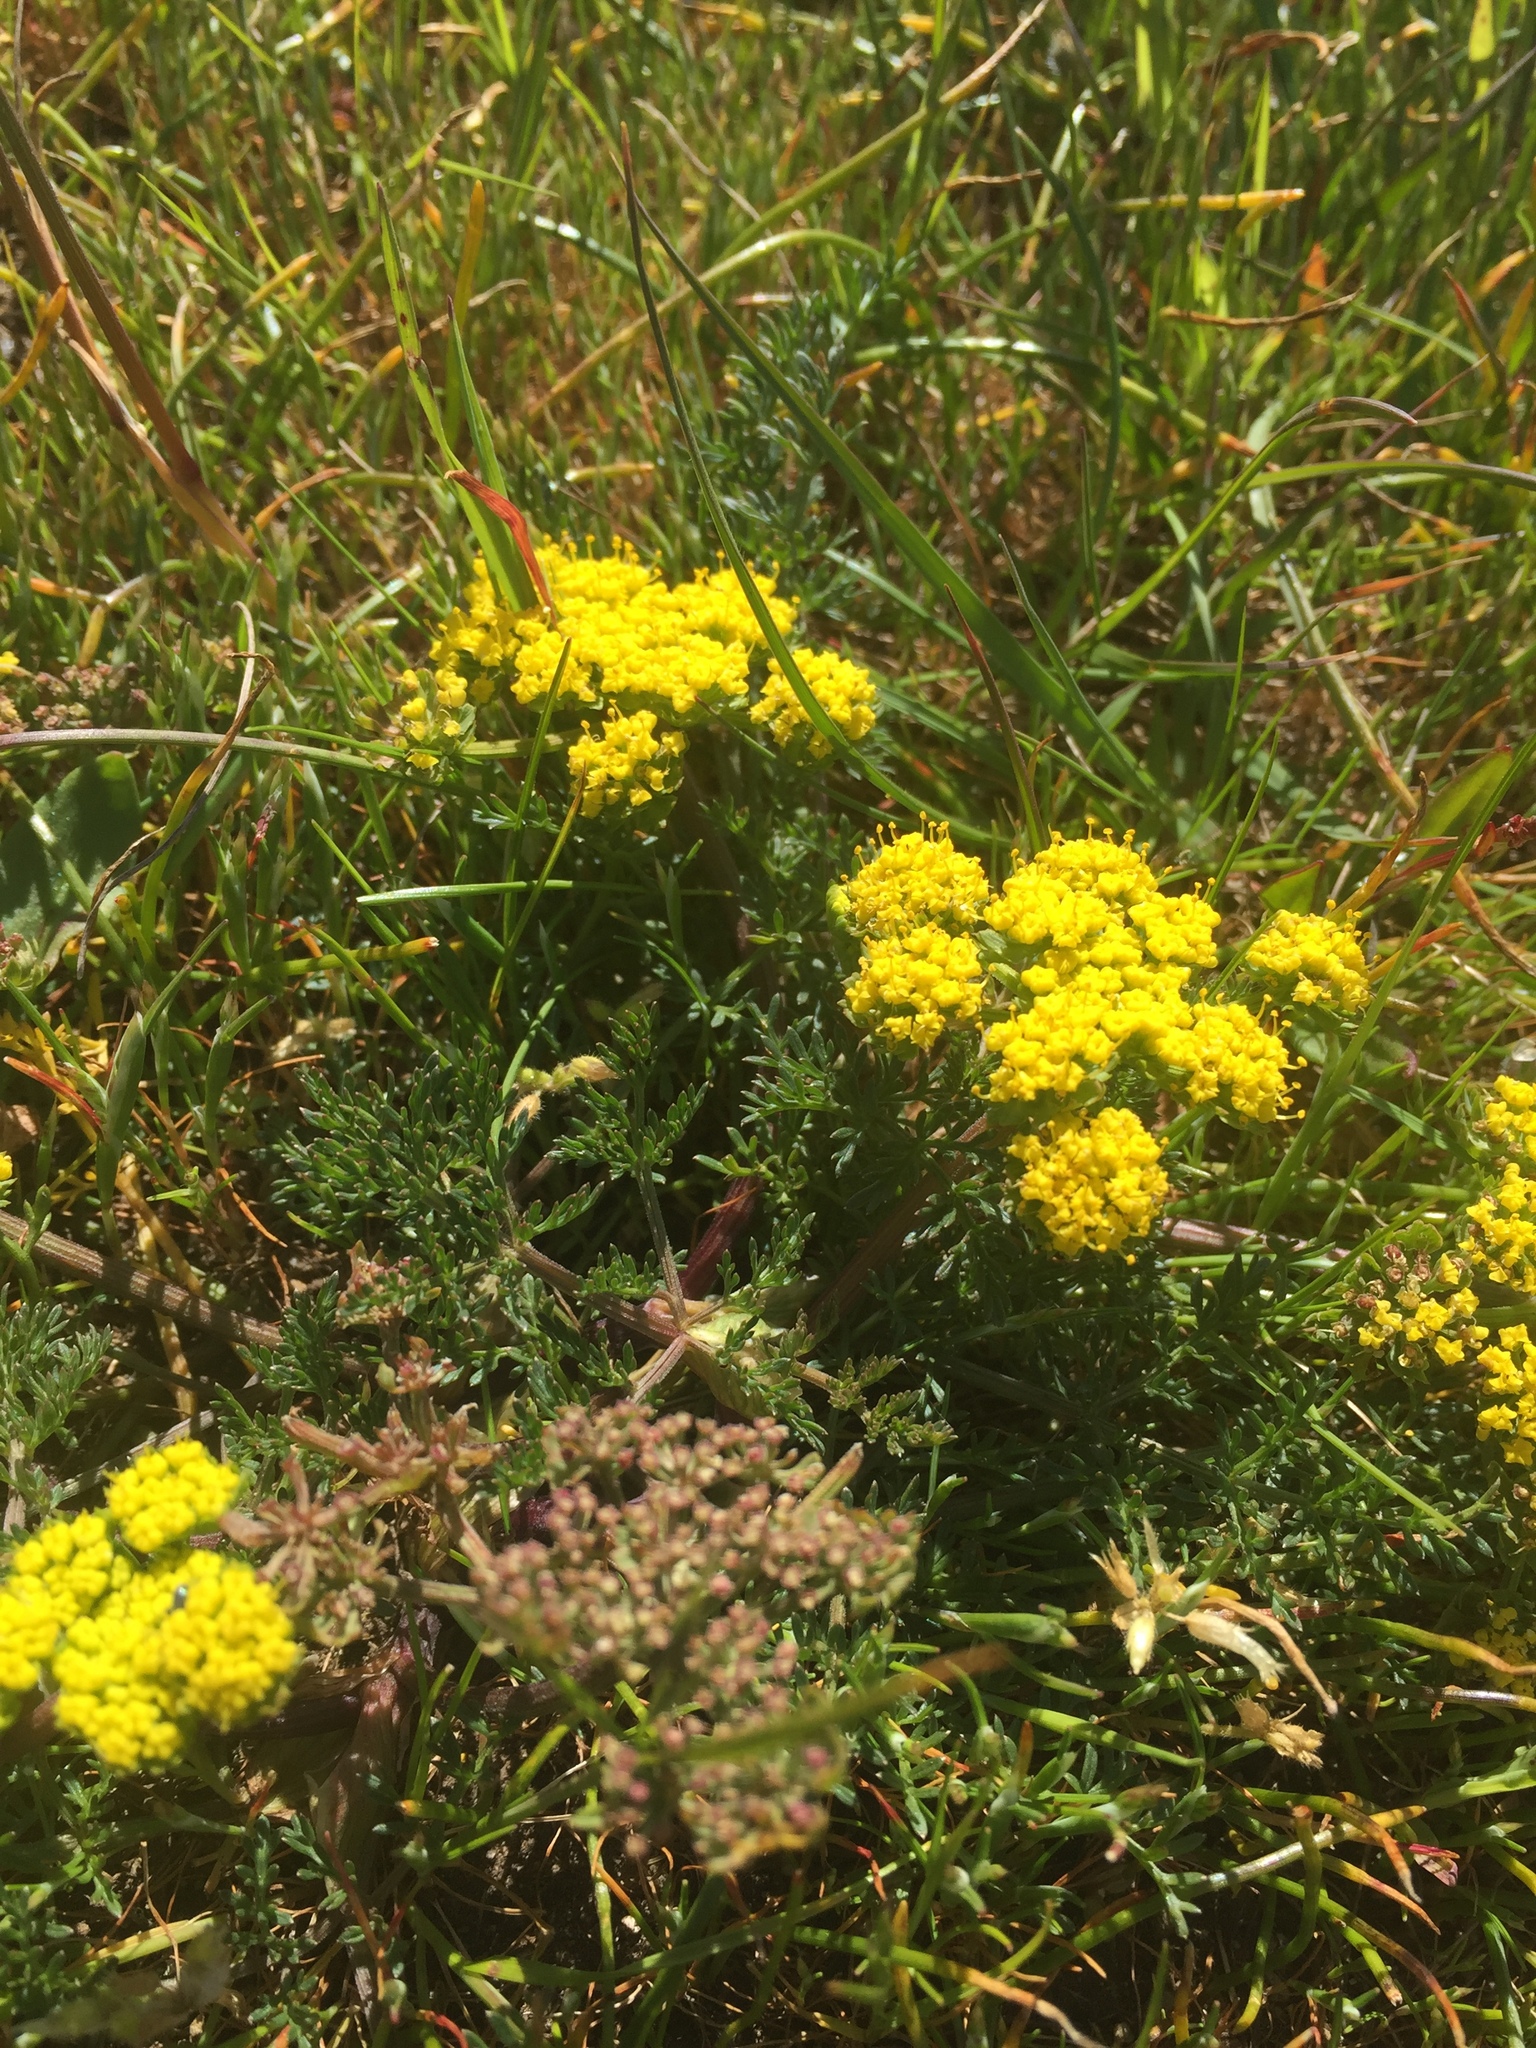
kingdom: Plantae
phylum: Tracheophyta
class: Magnoliopsida
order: Apiales
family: Apiaceae
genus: Lomatium
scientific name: Lomatium utriculatum
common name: Fine-leaf desert-parsley
